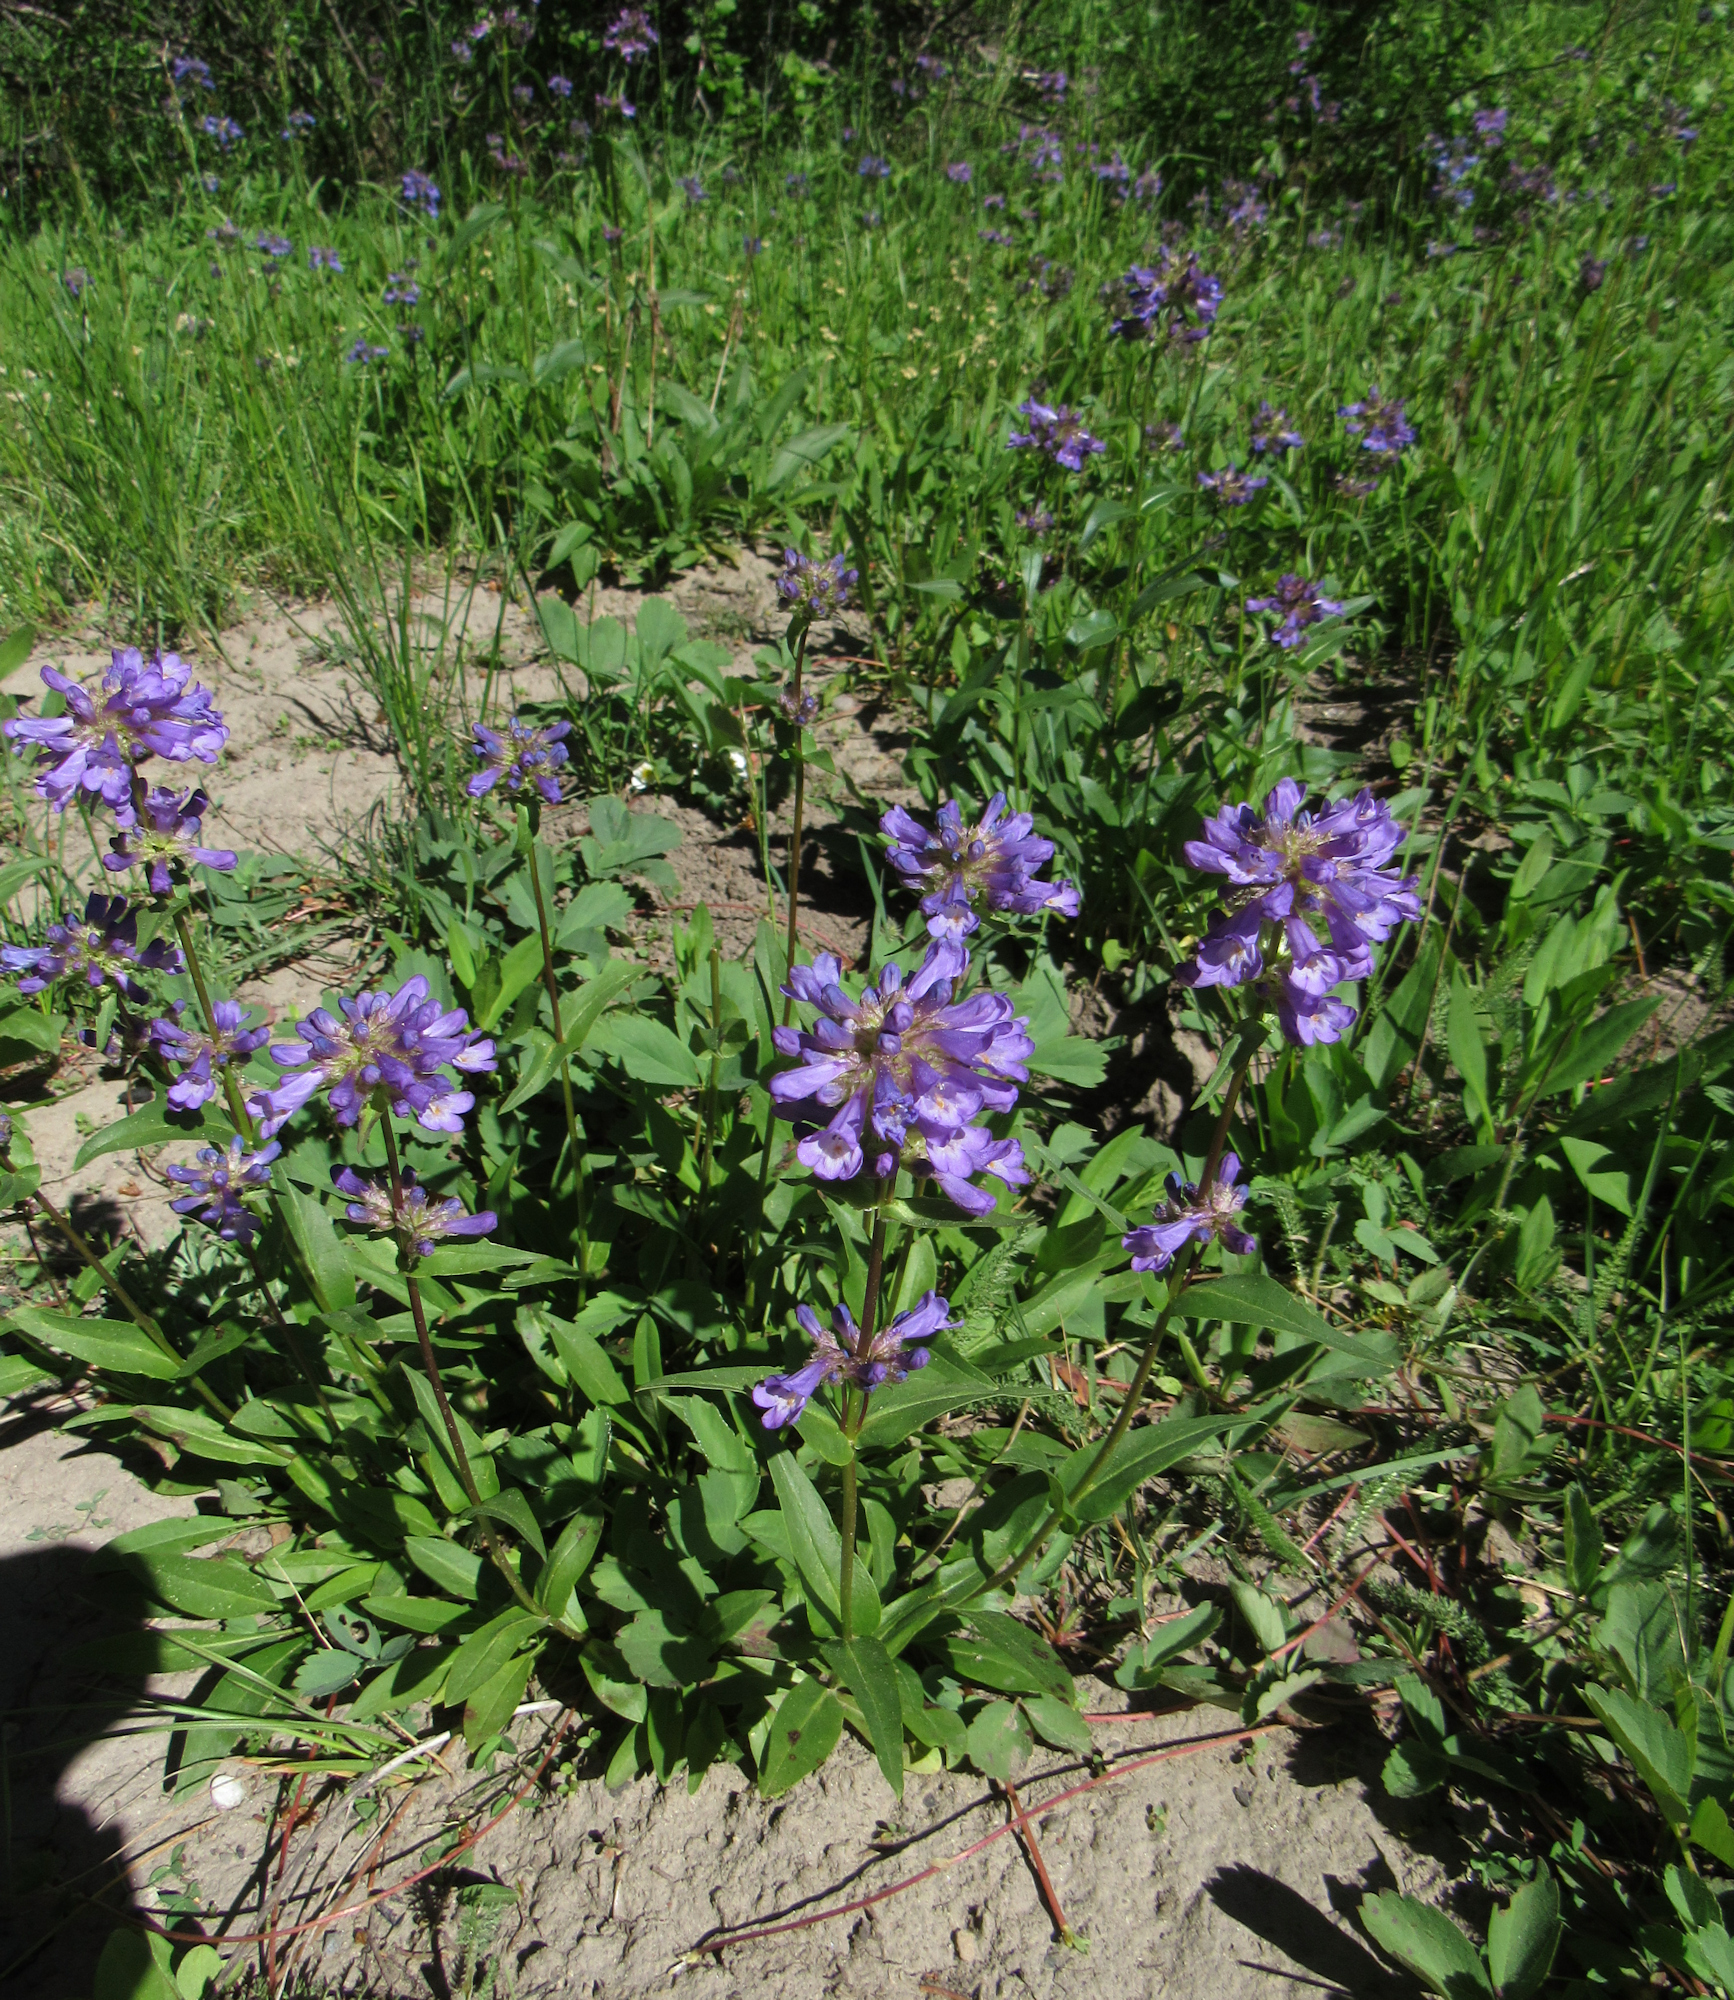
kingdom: Plantae
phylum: Tracheophyta
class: Magnoliopsida
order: Lamiales
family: Plantaginaceae
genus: Penstemon
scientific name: Penstemon rydbergii
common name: Rydberg's beardtongue
